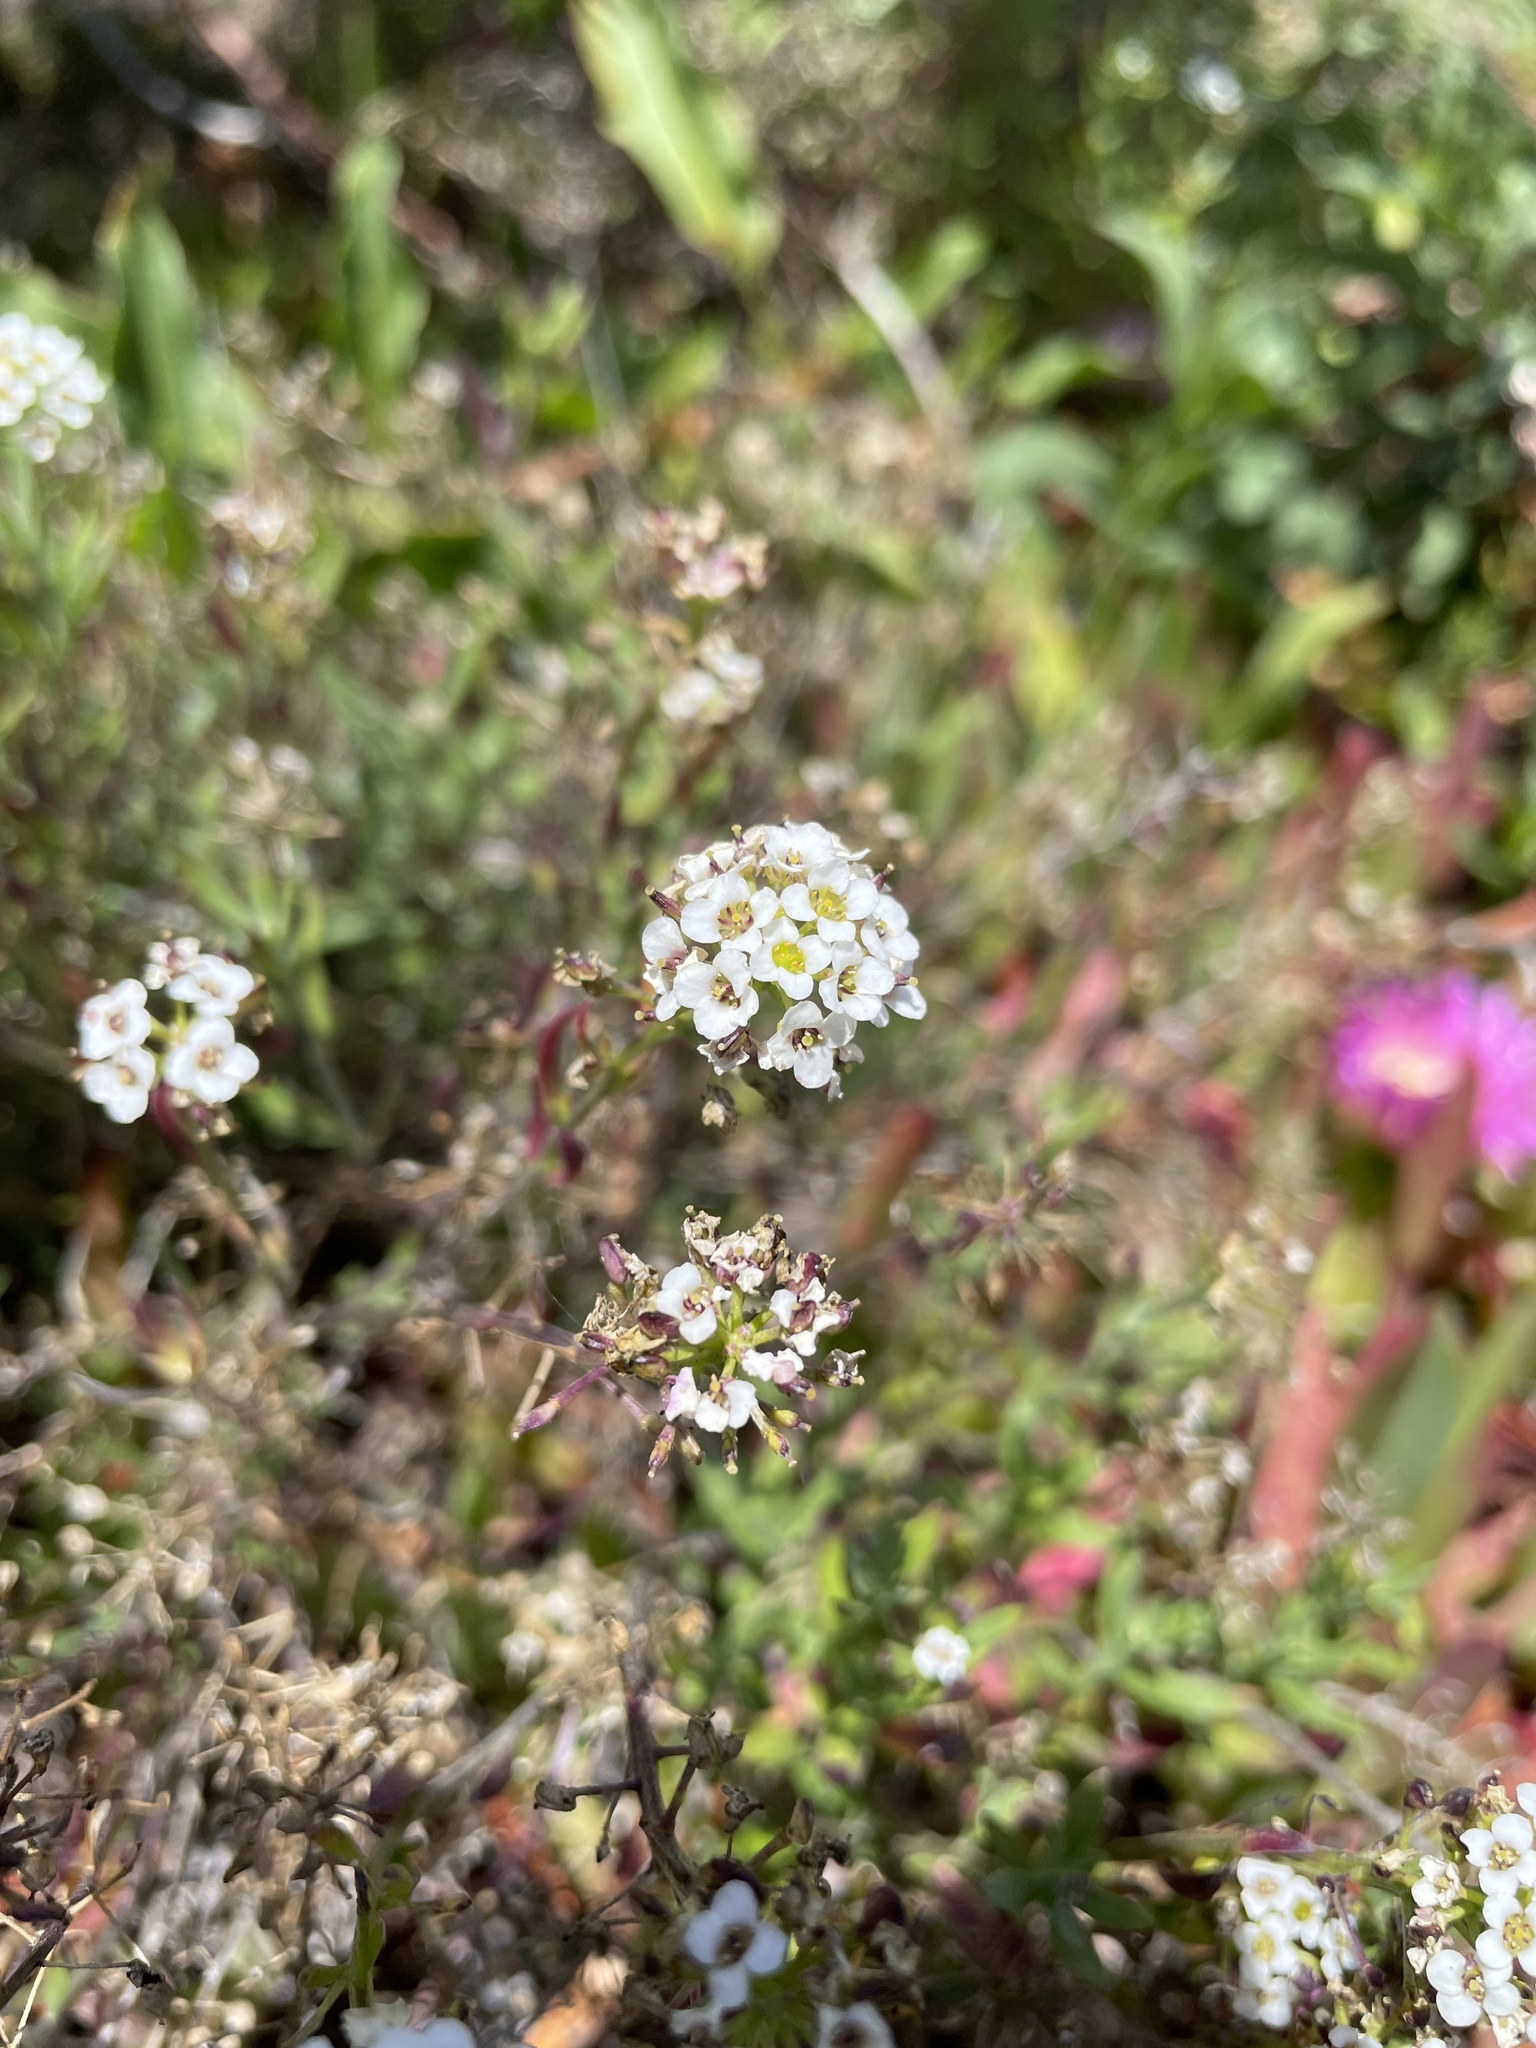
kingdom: Plantae
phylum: Tracheophyta
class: Magnoliopsida
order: Brassicales
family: Brassicaceae
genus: Lobularia
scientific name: Lobularia maritima
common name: Sweet alison
